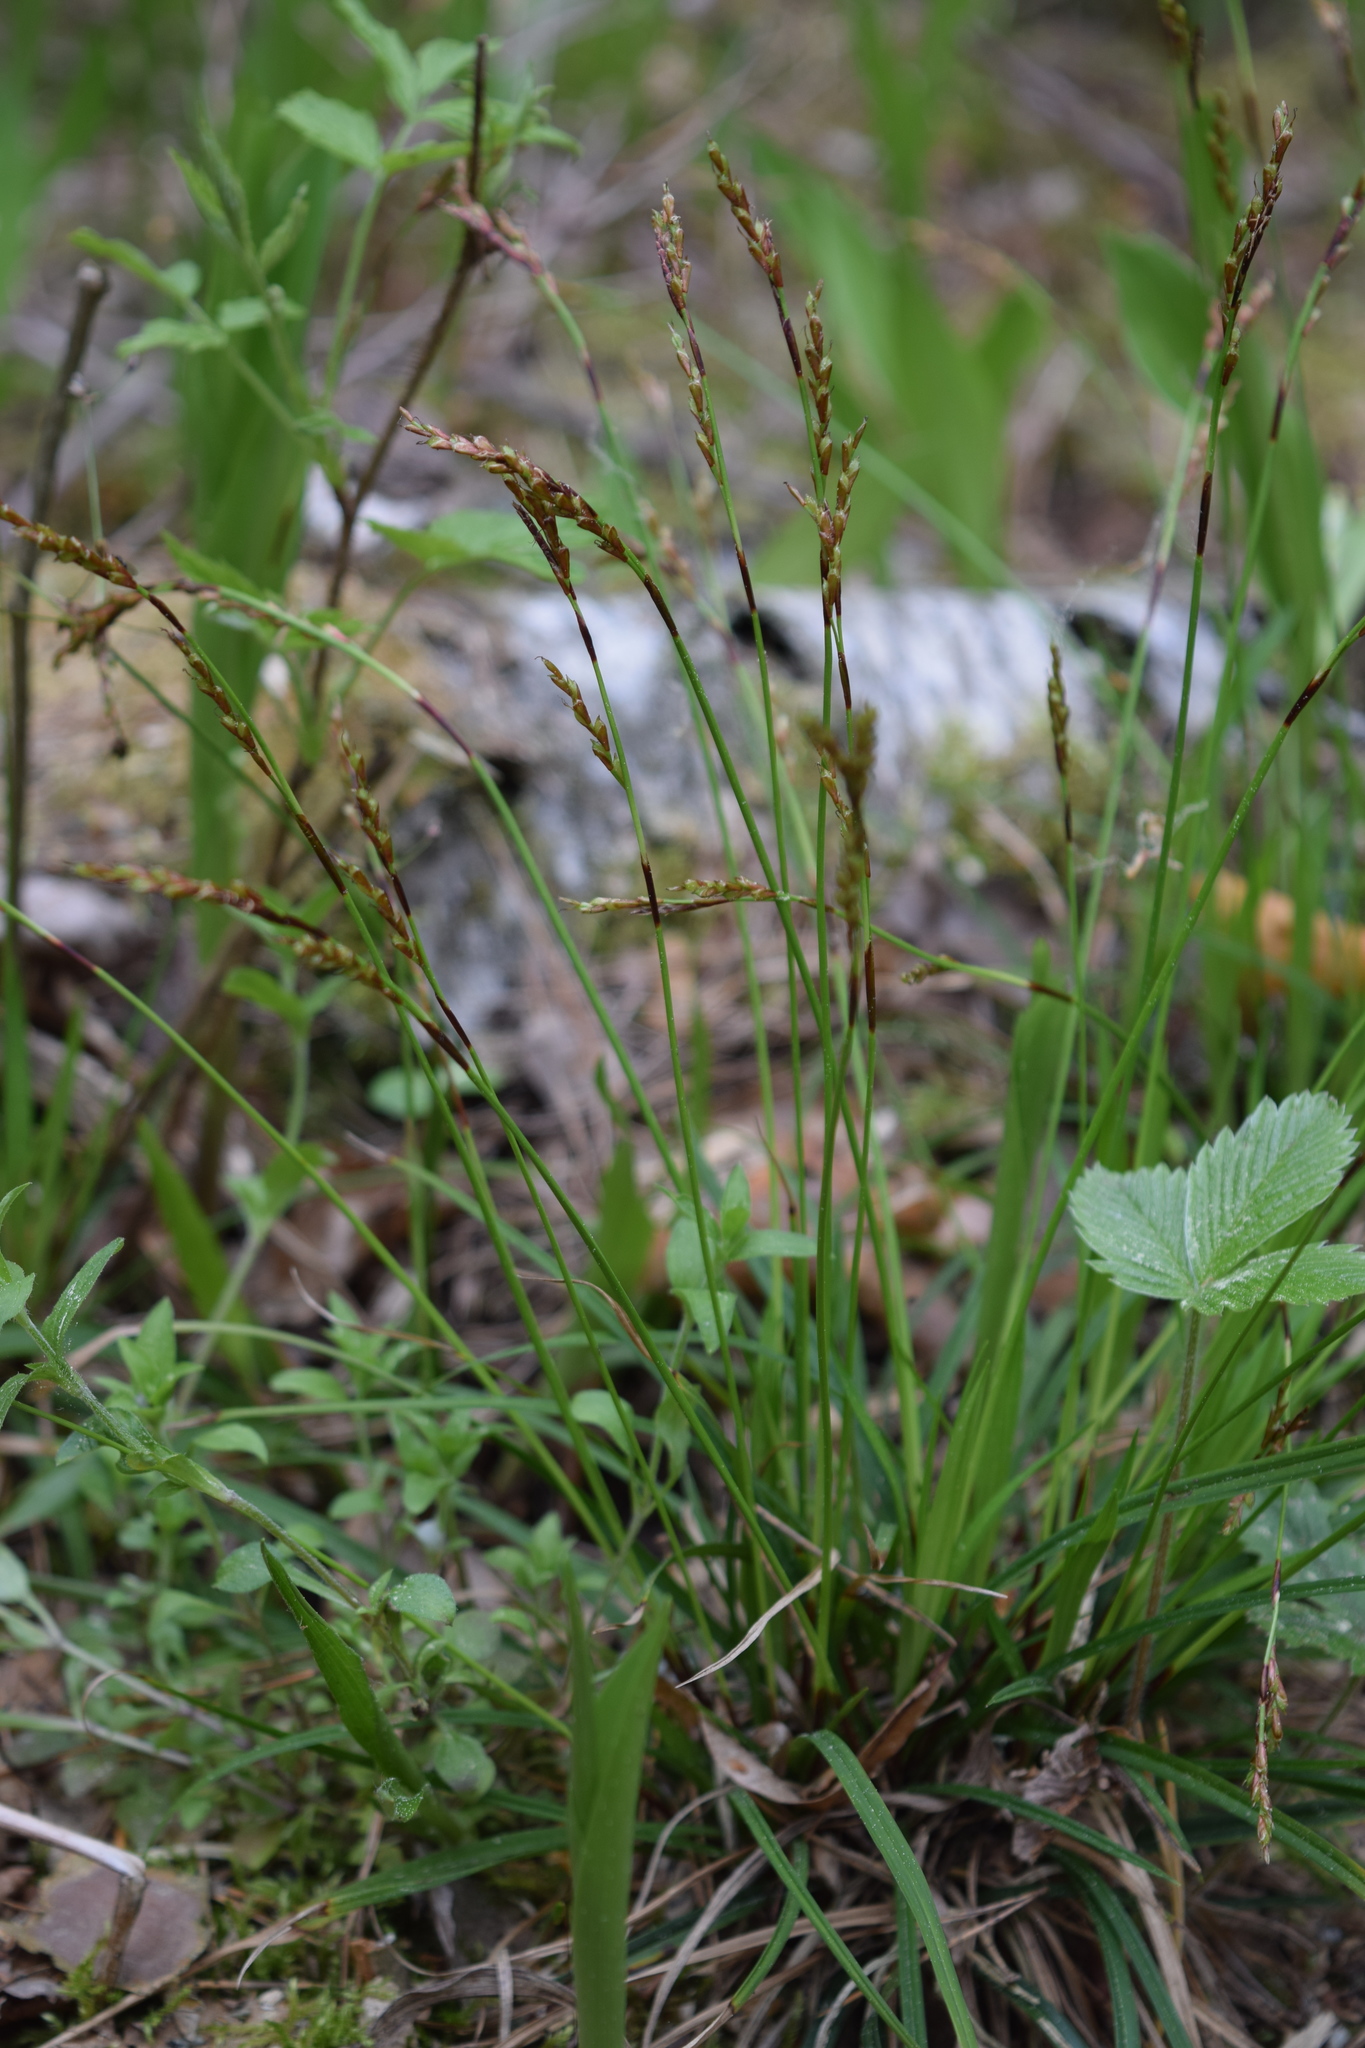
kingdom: Plantae
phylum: Tracheophyta
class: Liliopsida
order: Poales
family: Cyperaceae
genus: Carex
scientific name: Carex digitata
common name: Fingered sedge
